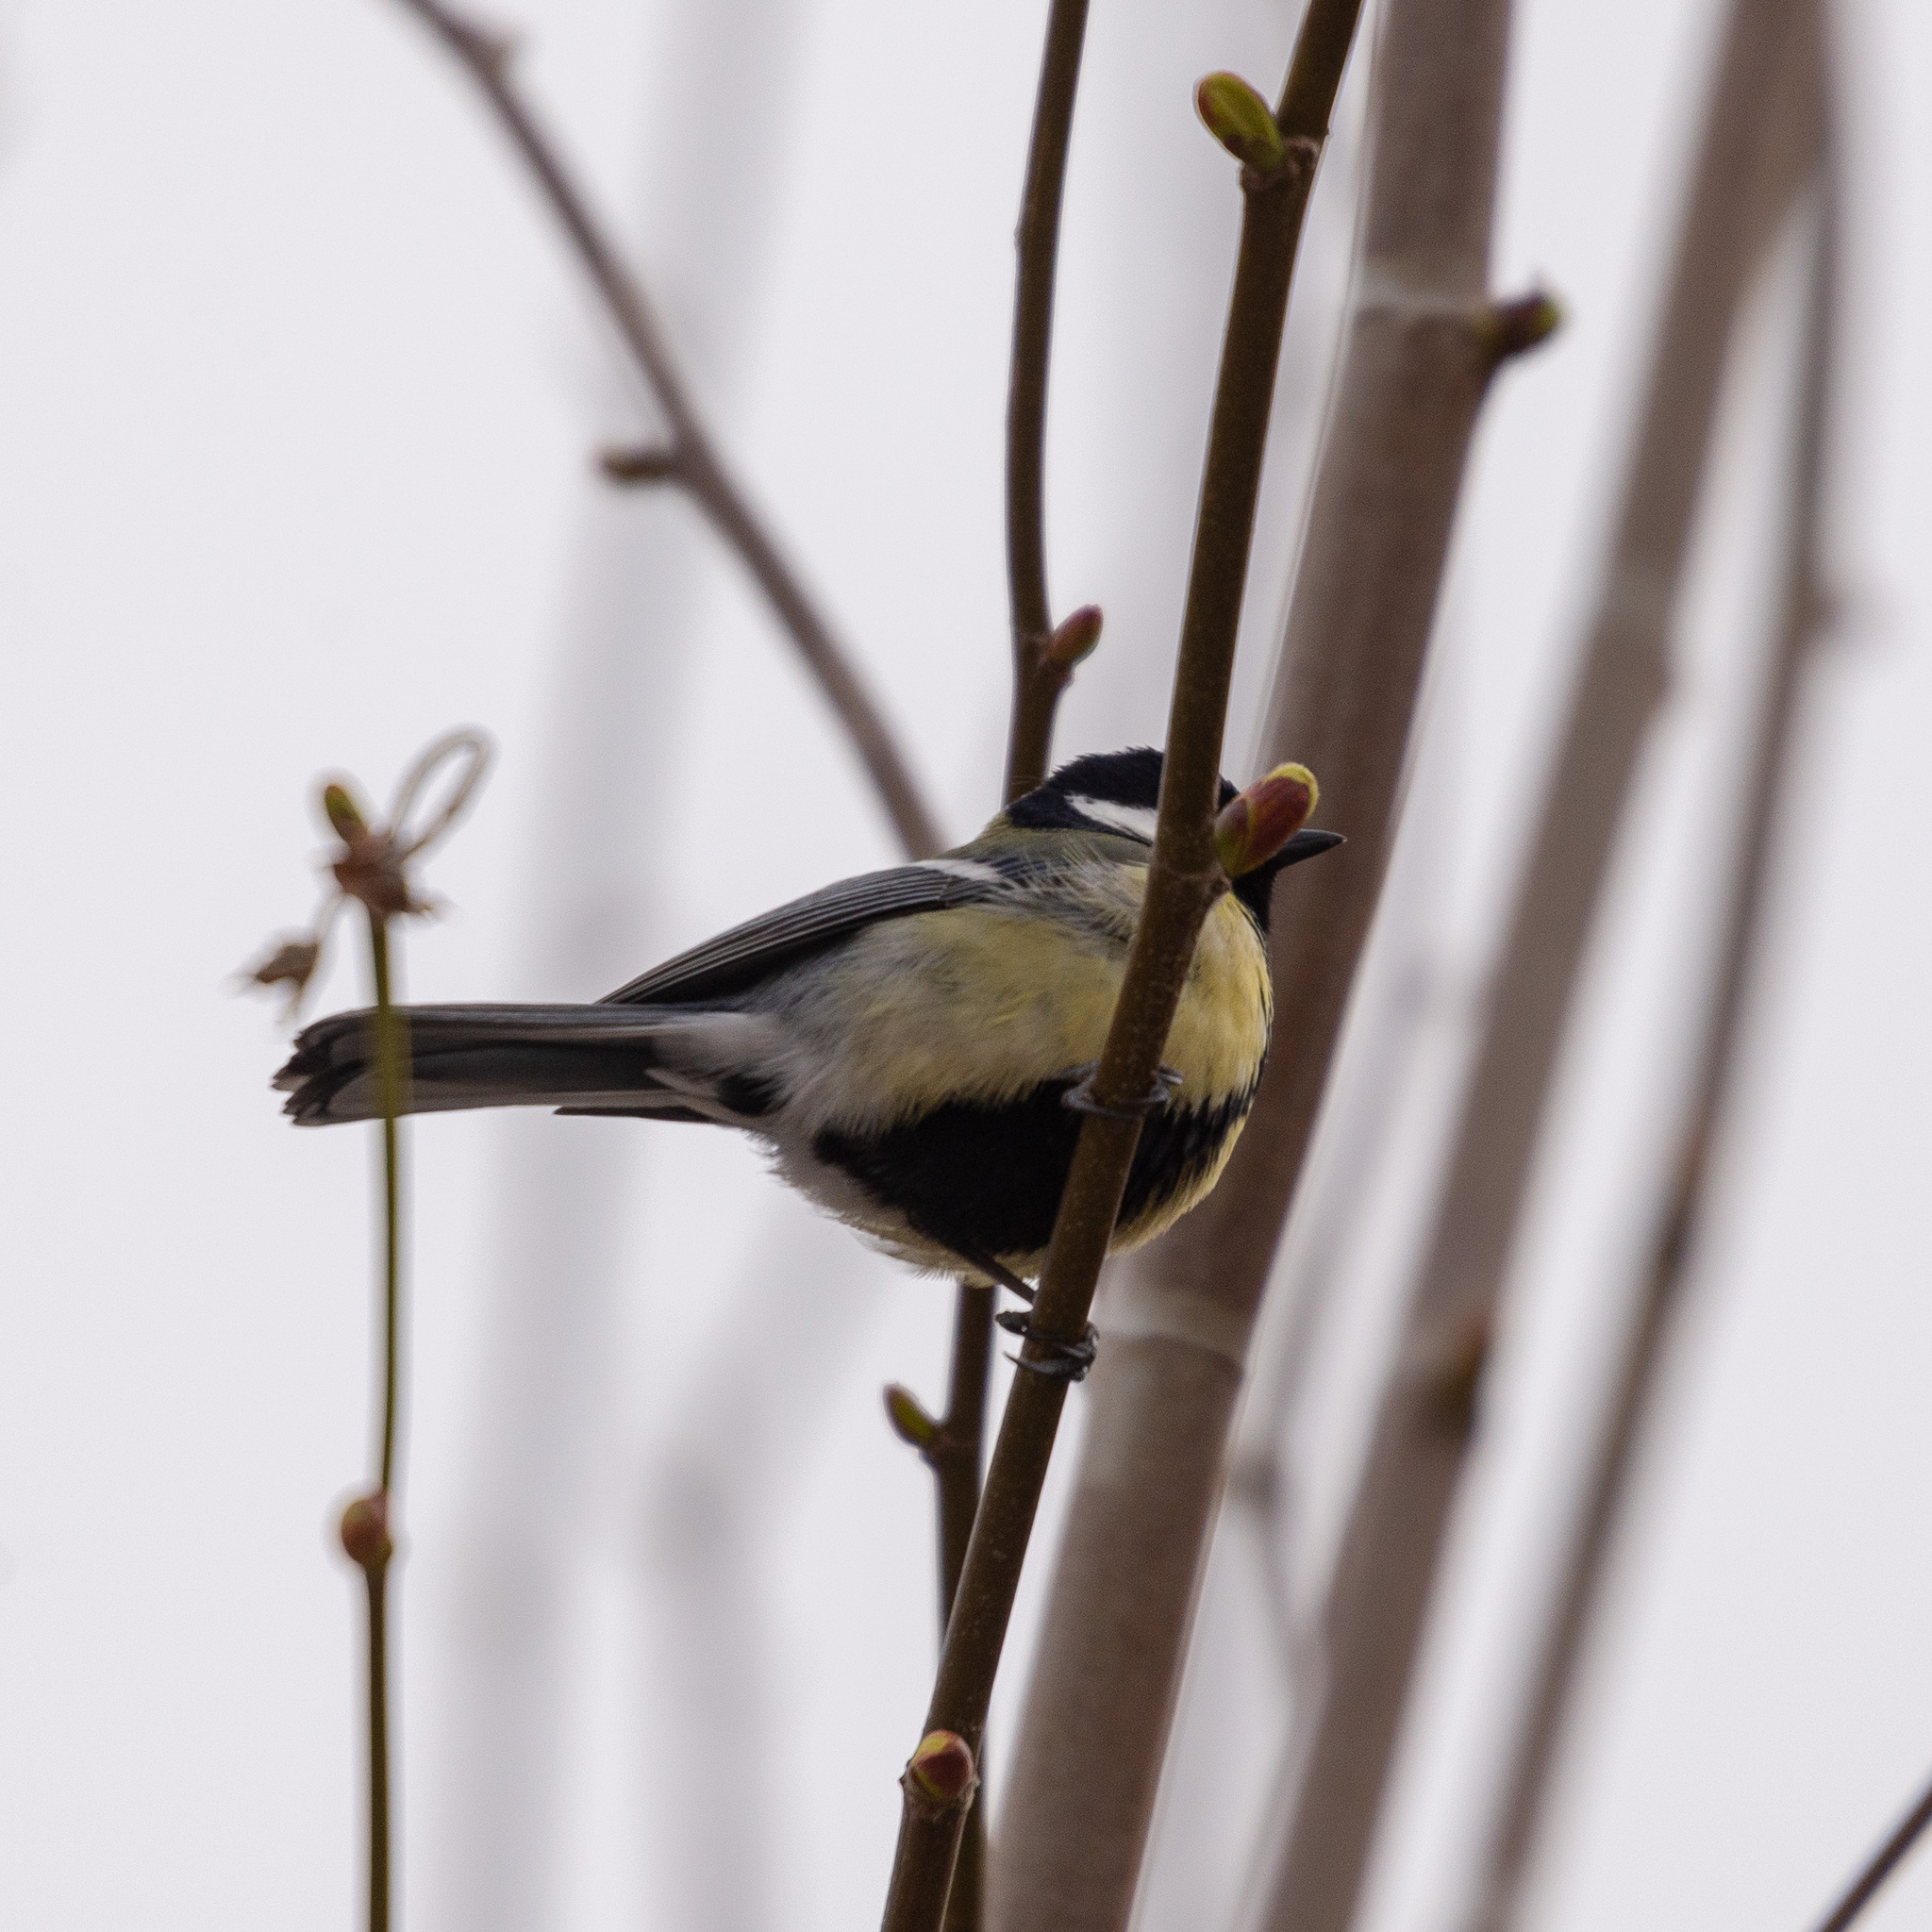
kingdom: Animalia
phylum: Chordata
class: Aves
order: Passeriformes
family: Paridae
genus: Parus
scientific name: Parus major
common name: Great tit
